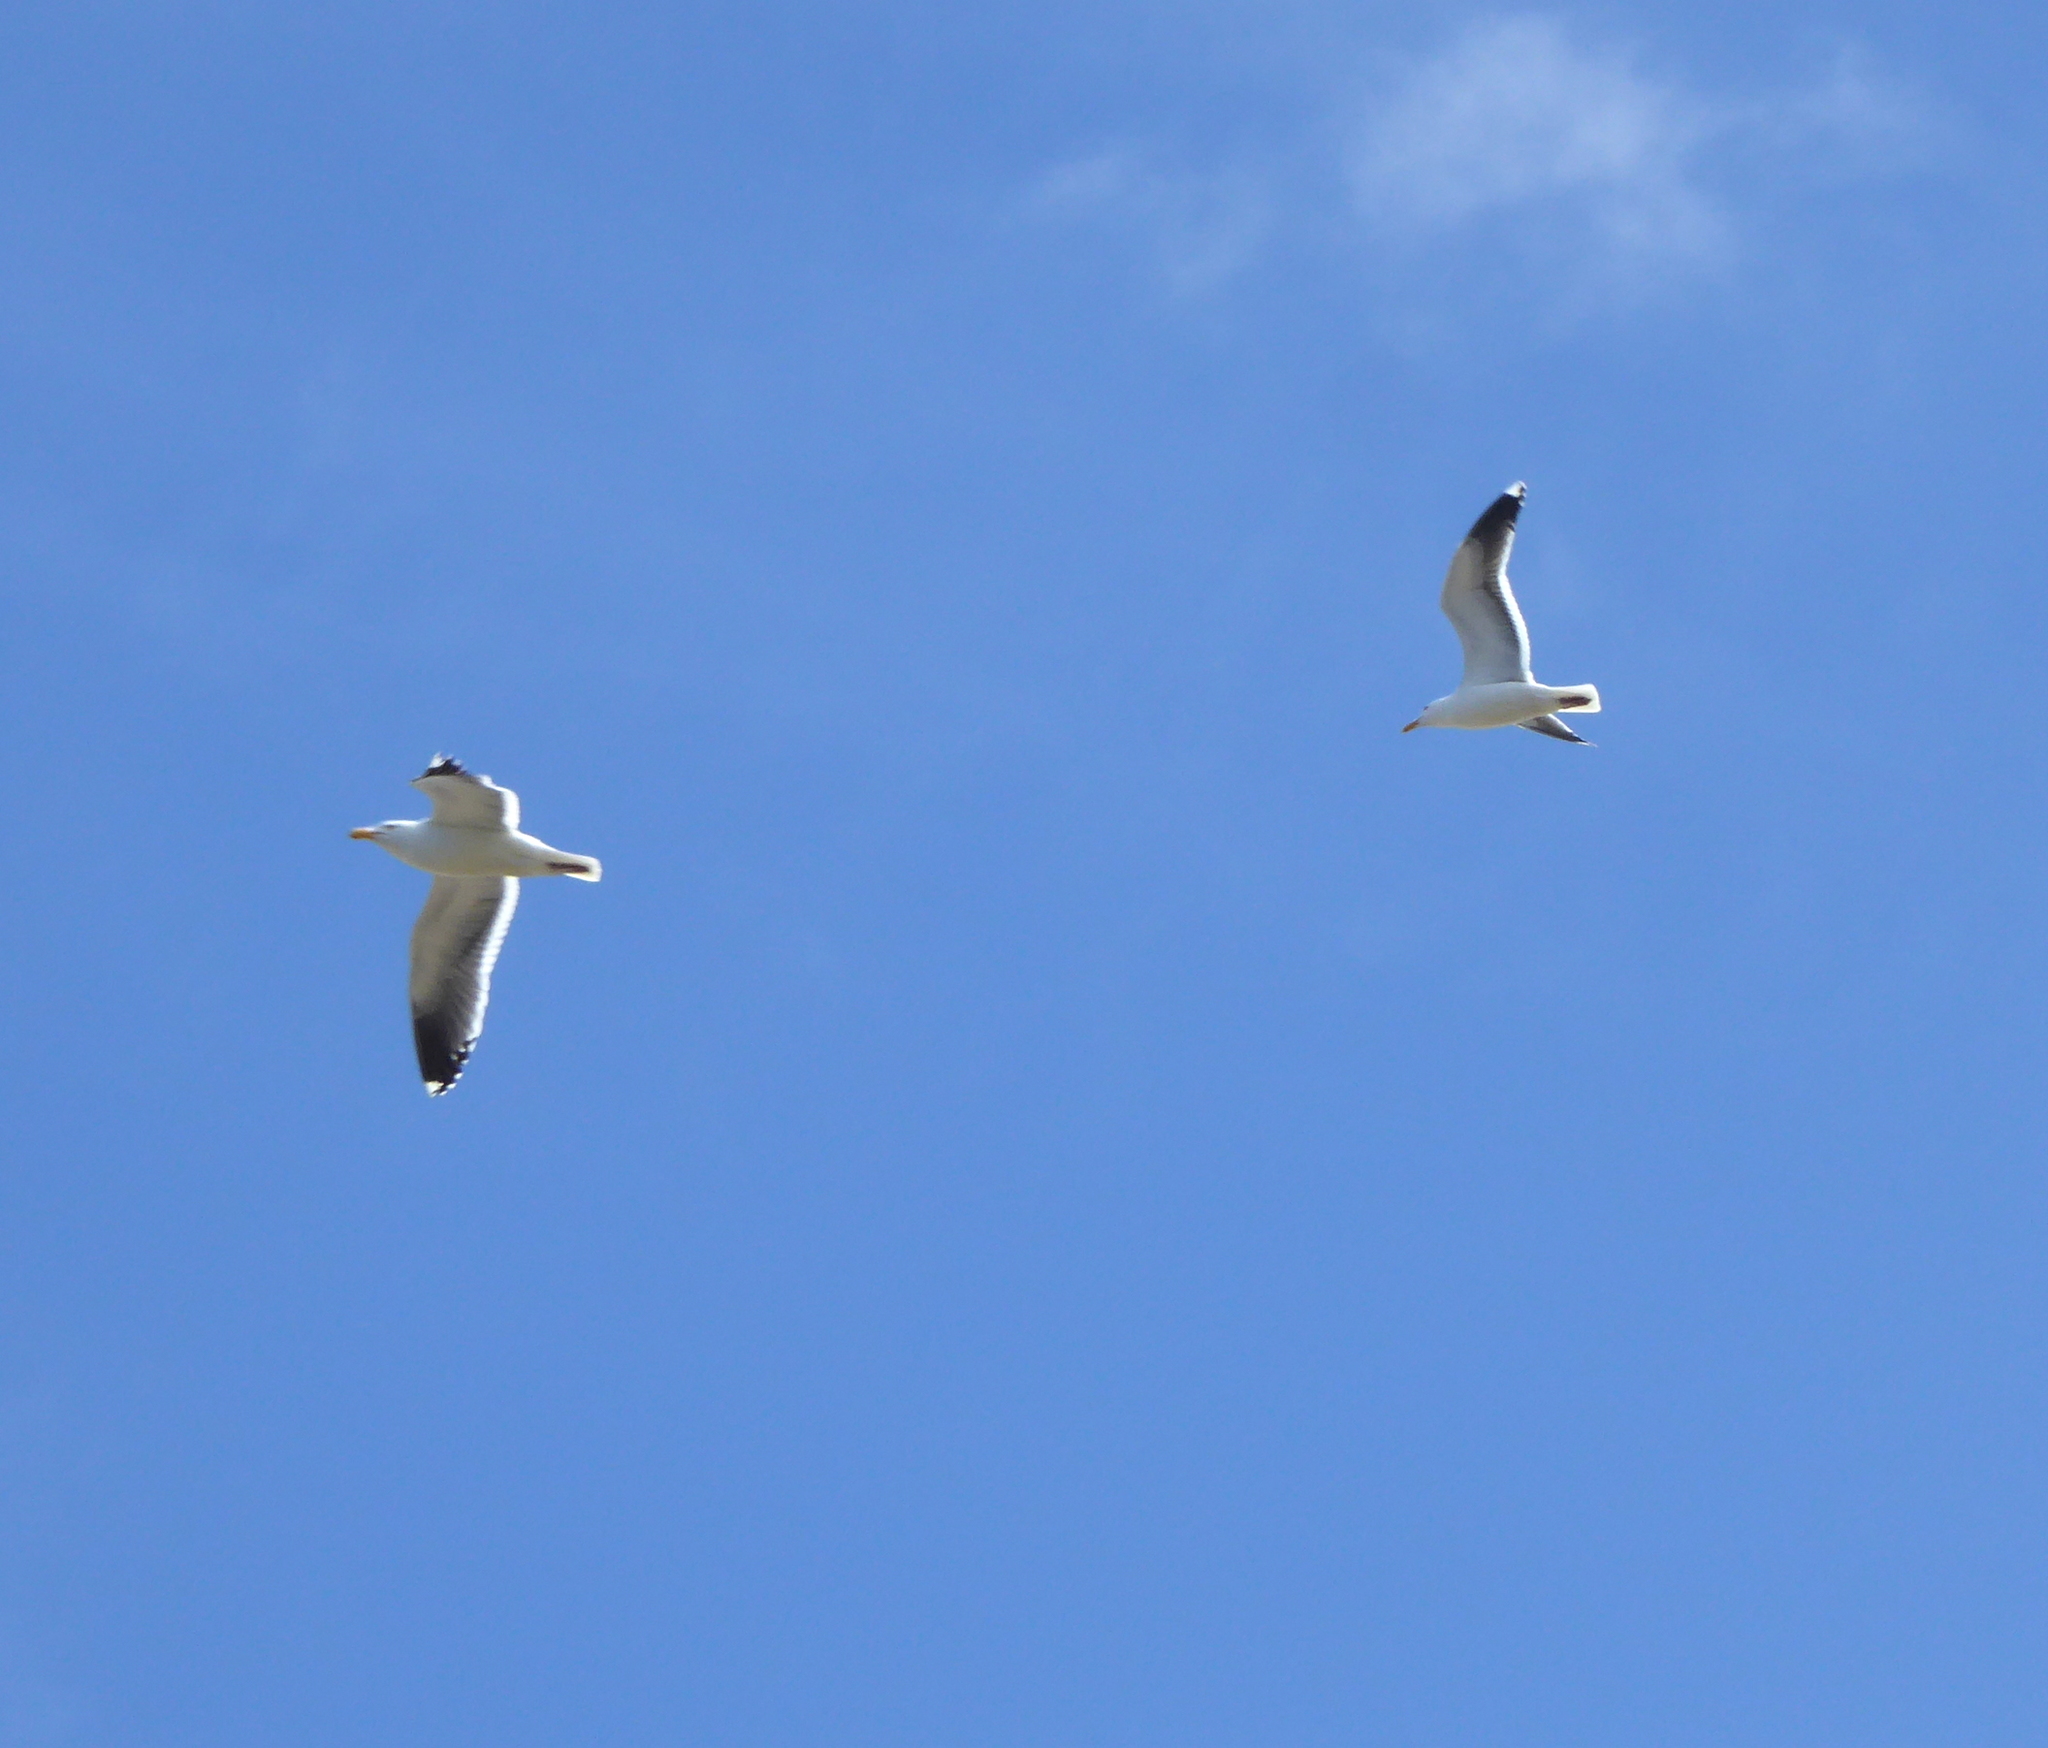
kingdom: Animalia
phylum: Chordata
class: Aves
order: Charadriiformes
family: Laridae
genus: Larus
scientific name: Larus occidentalis
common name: Western gull
